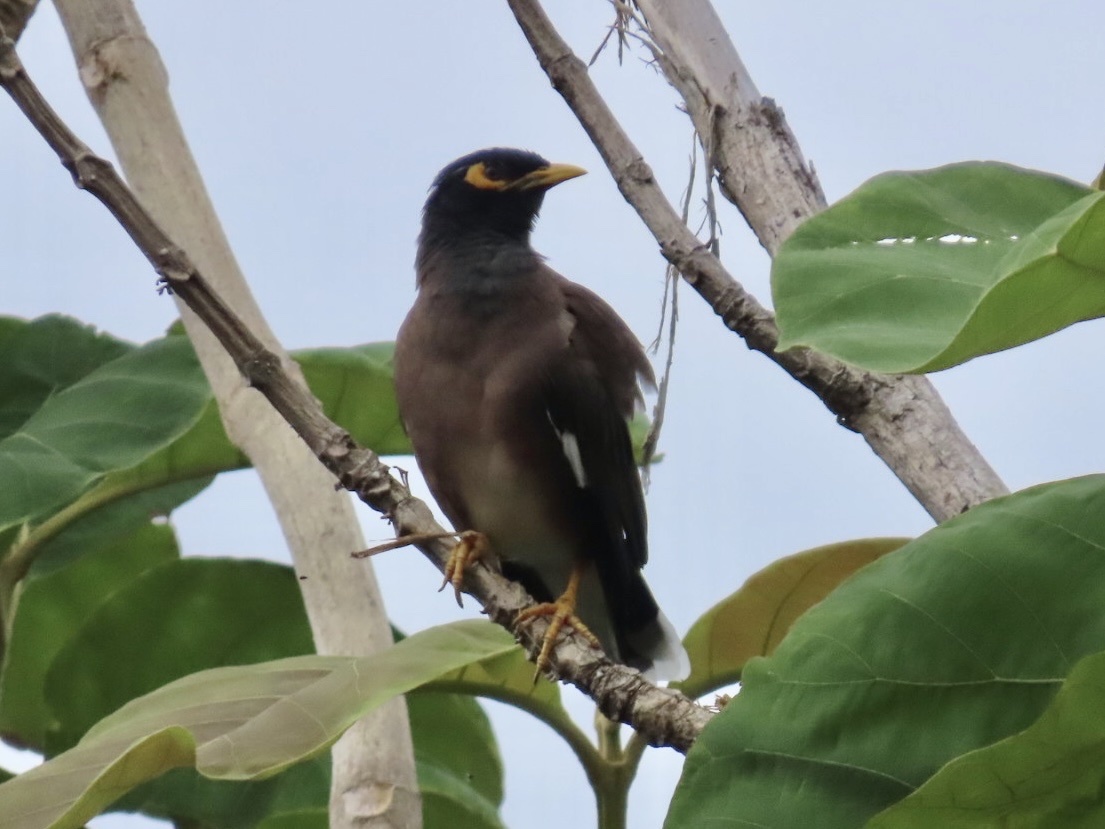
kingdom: Animalia
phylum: Chordata
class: Aves
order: Passeriformes
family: Sturnidae
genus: Acridotheres
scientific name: Acridotheres tristis
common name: Common myna
